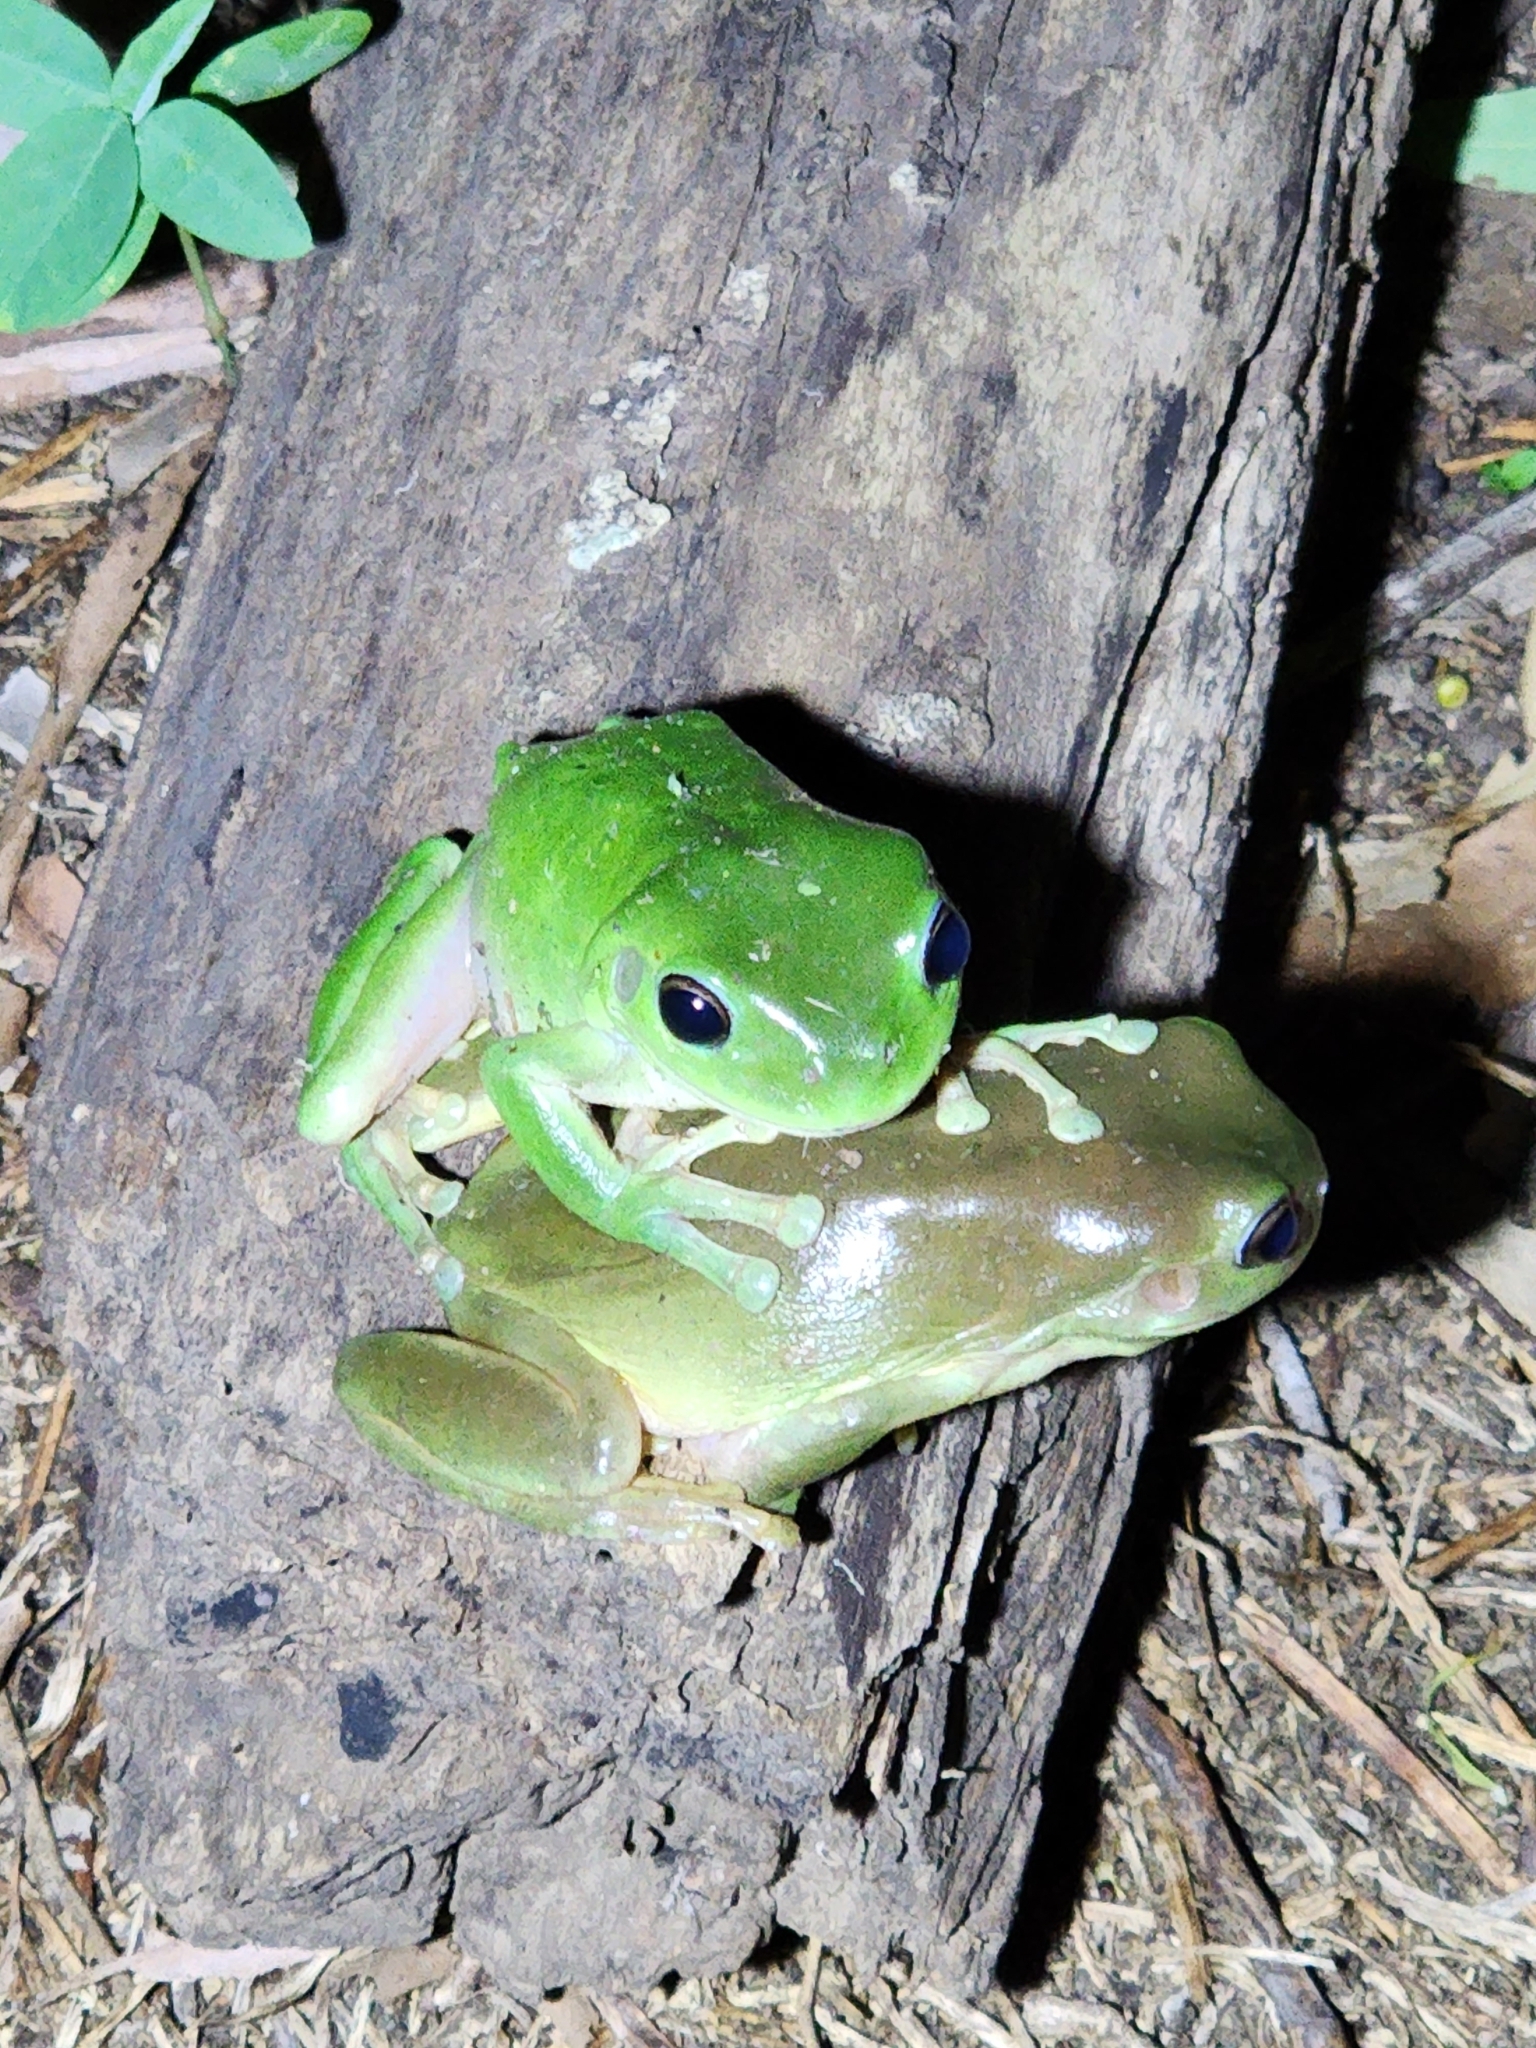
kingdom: Animalia
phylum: Chordata
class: Amphibia
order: Anura
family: Pelodryadidae
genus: Ranoidea
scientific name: Ranoidea caerulea
